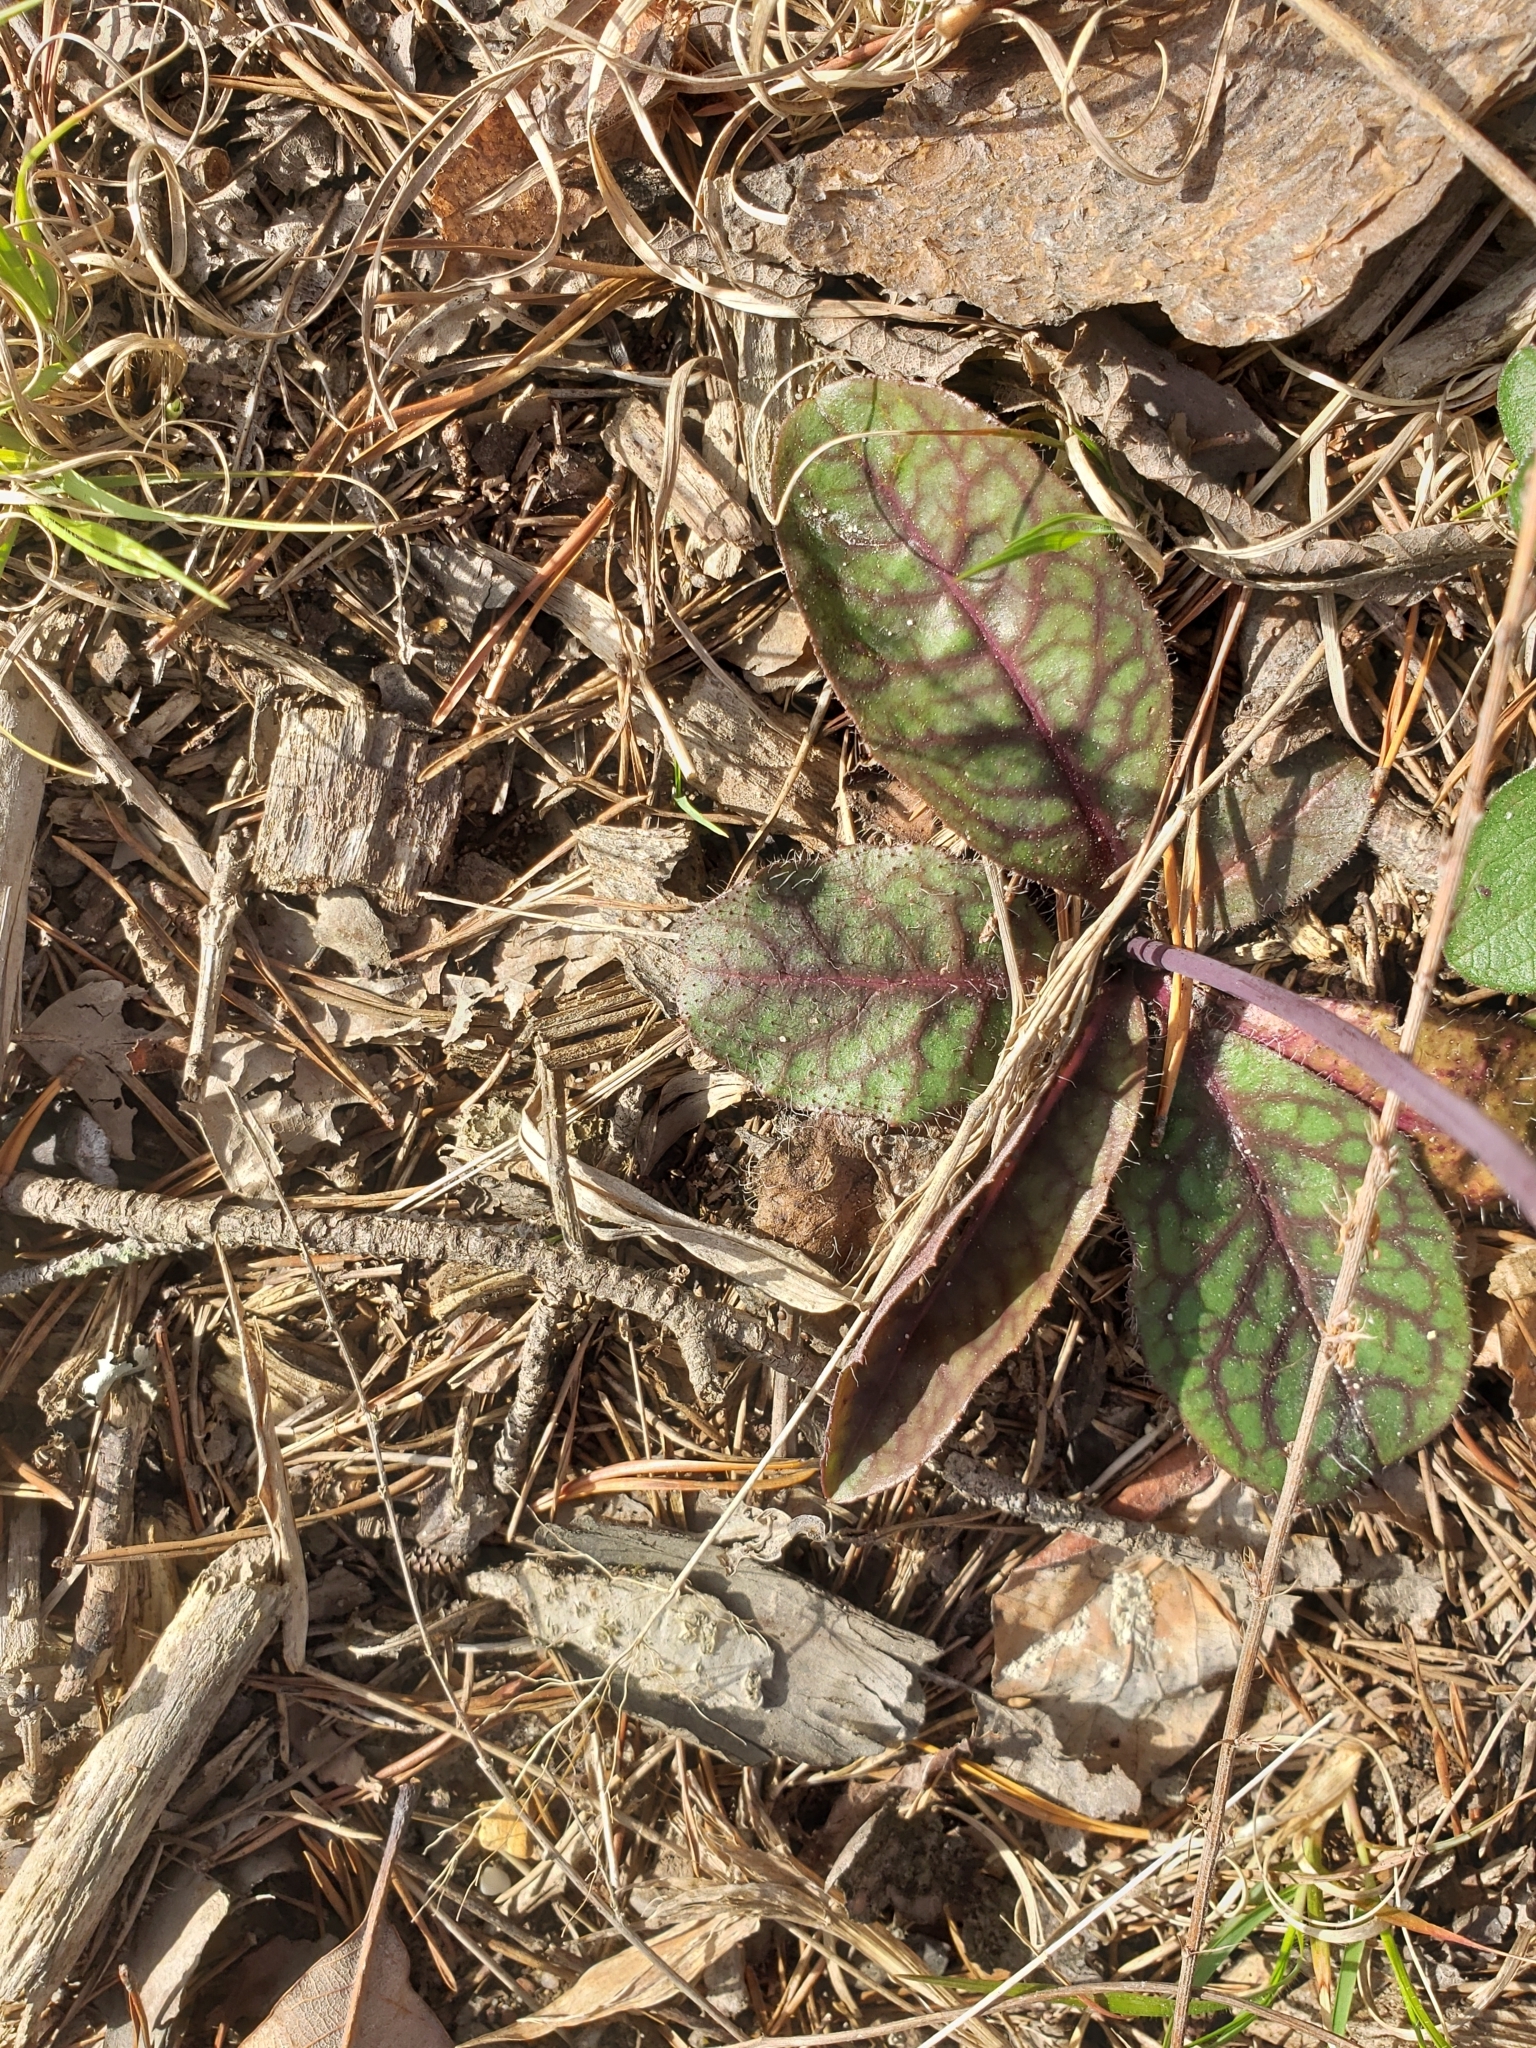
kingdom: Plantae
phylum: Tracheophyta
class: Magnoliopsida
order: Asterales
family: Asteraceae
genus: Hieracium
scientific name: Hieracium venosum
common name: Rattlesnake hawkweed
